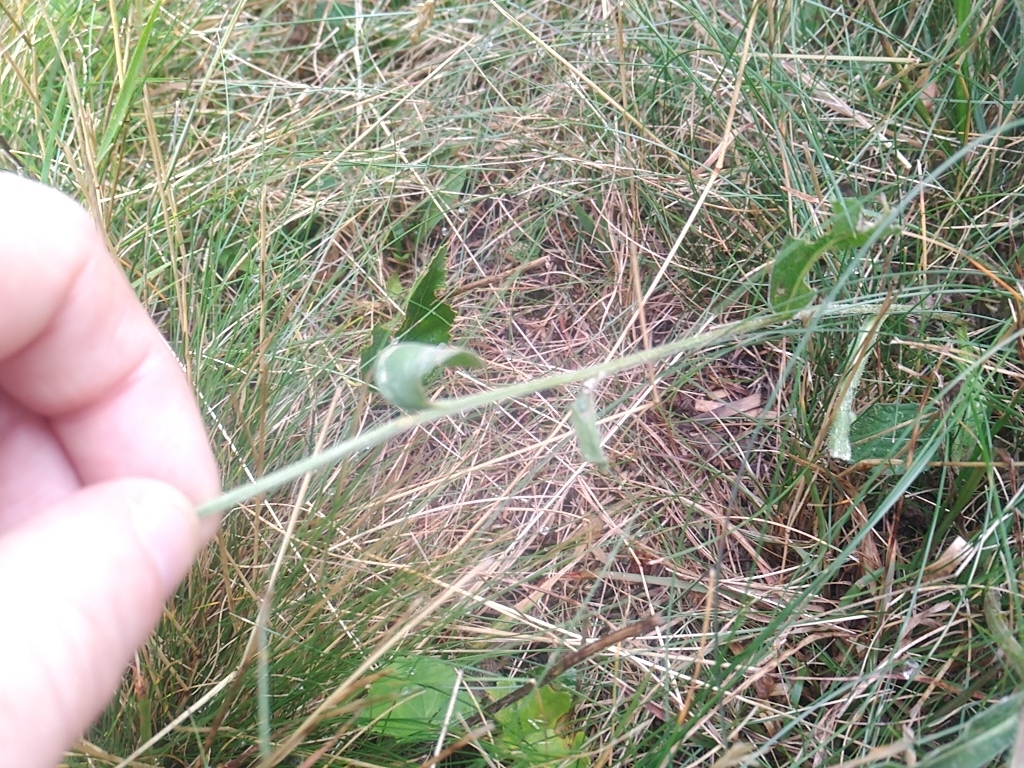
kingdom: Plantae
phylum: Tracheophyta
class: Magnoliopsida
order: Asterales
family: Asteraceae
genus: Centaurea
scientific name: Centaurea nigra
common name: Lesser knapweed
